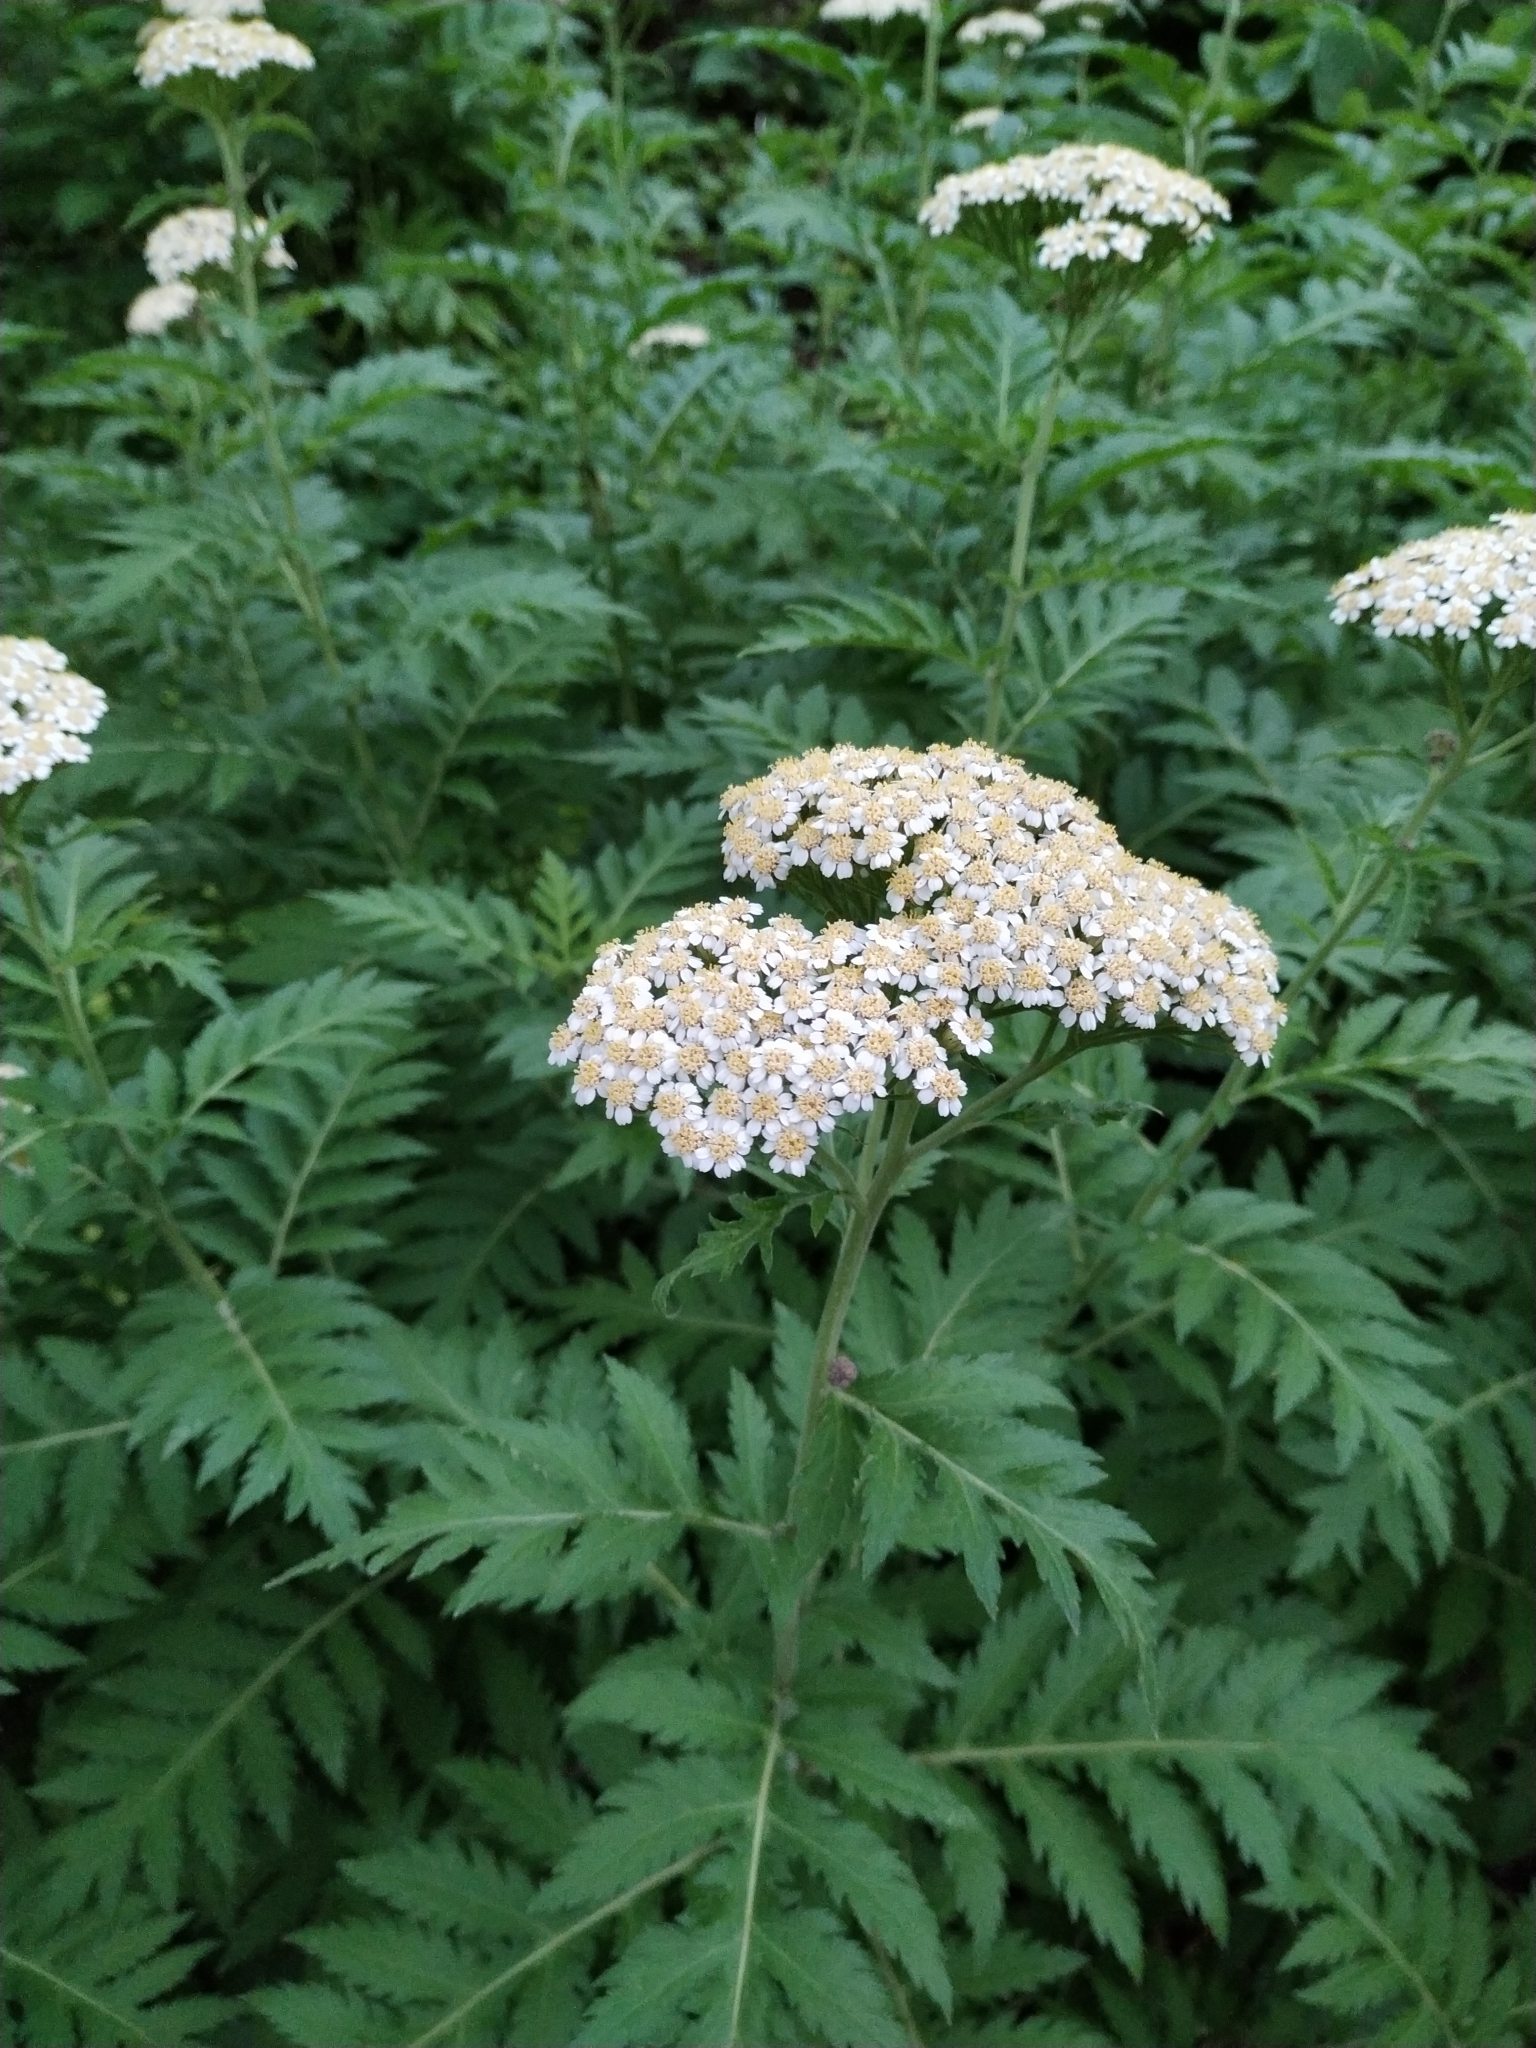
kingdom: Plantae
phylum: Tracheophyta
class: Magnoliopsida
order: Asterales
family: Asteraceae
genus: Tanacetum
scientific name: Tanacetum macrophyllum
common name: Rayed tansy
